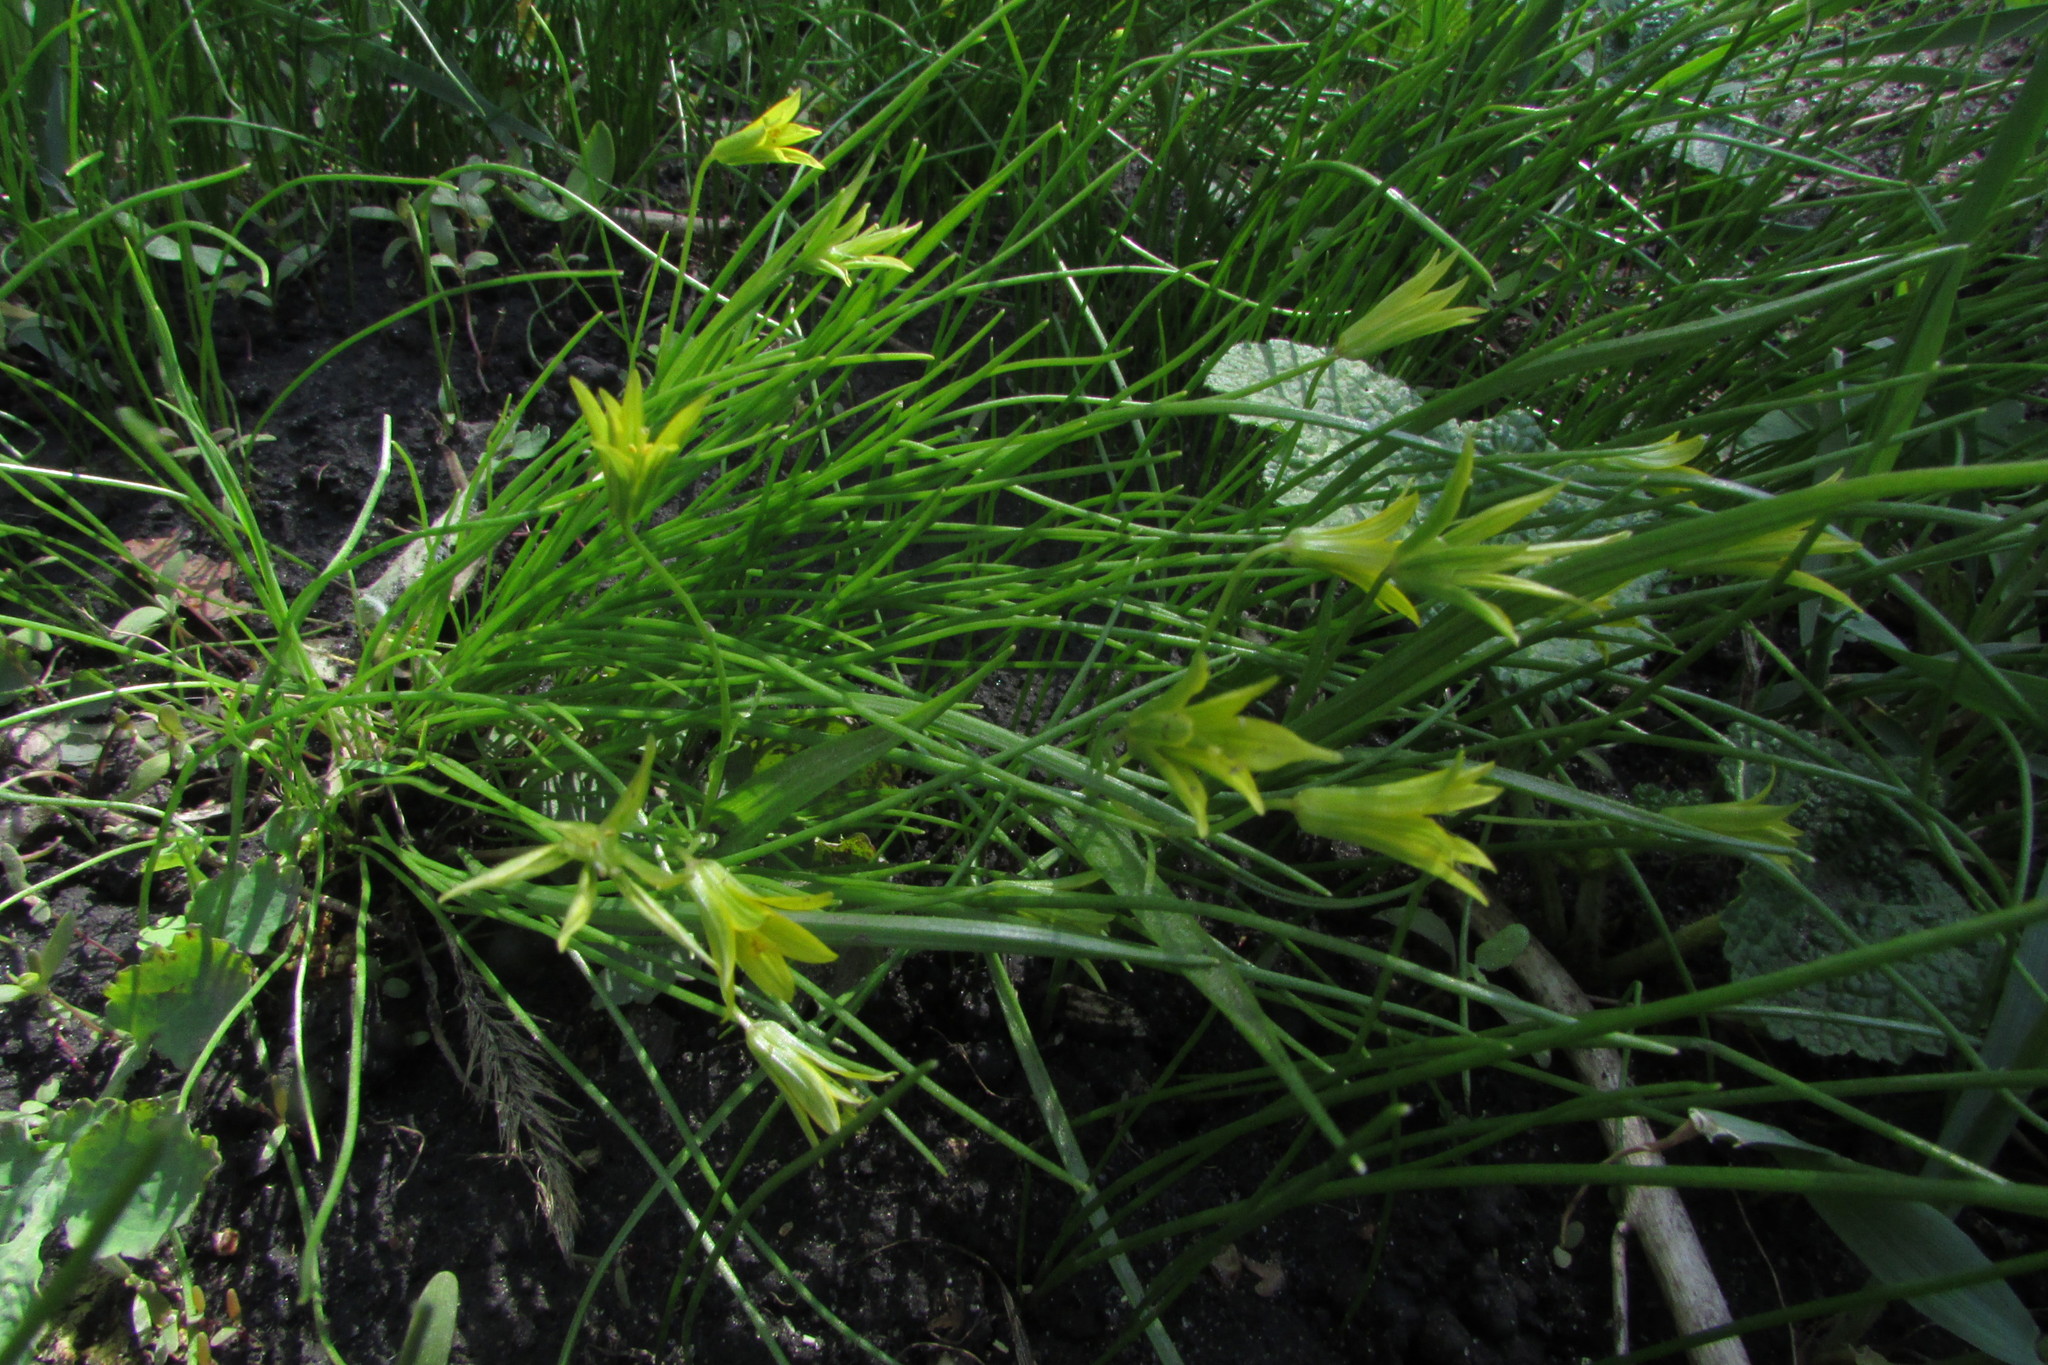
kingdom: Plantae
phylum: Tracheophyta
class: Liliopsida
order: Liliales
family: Liliaceae
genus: Gagea
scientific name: Gagea minima
